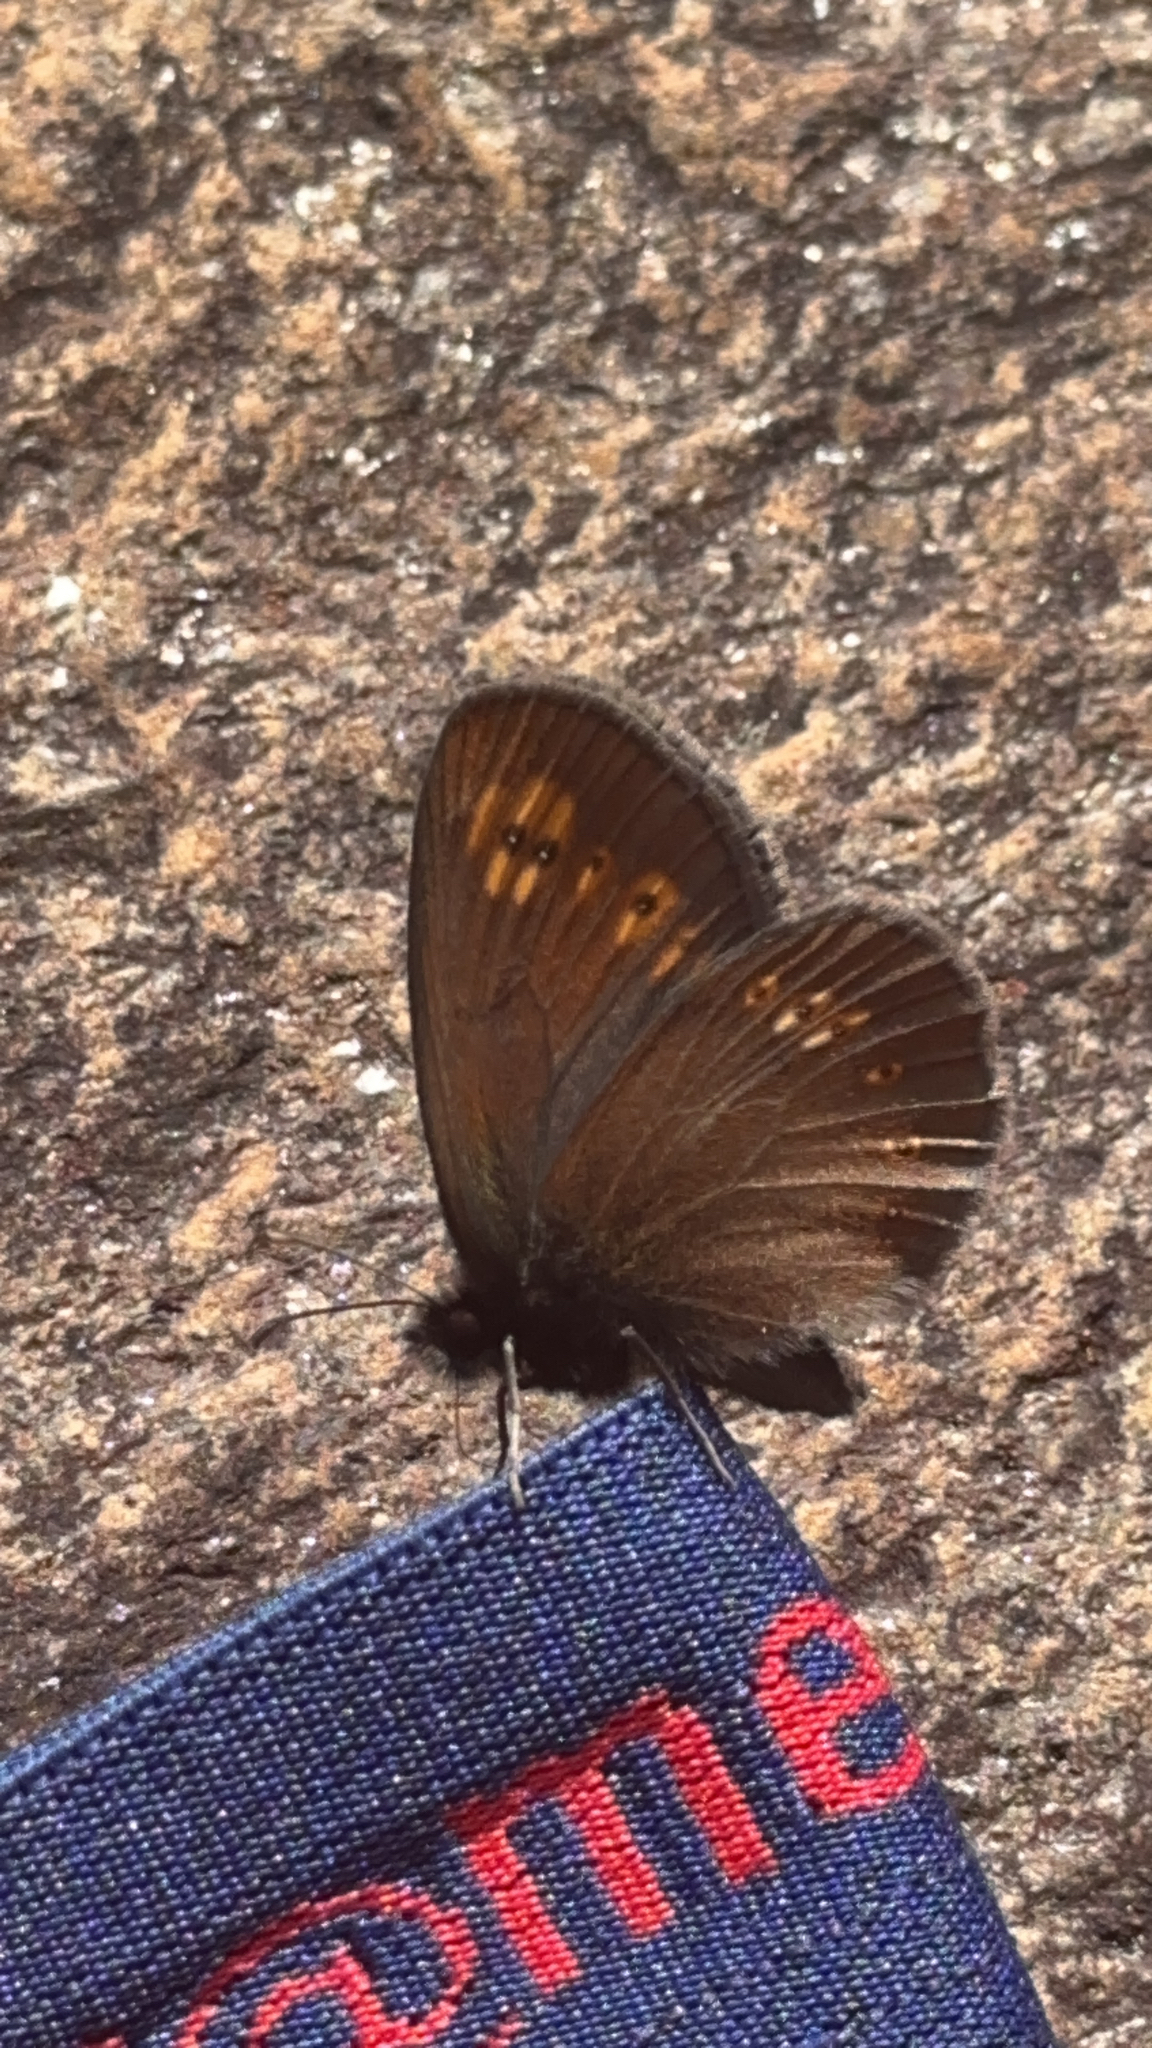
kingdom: Animalia
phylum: Arthropoda
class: Insecta
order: Lepidoptera
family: Nymphalidae
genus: Erebia
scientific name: Erebia alberganus
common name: Almond-eyed ringlet
